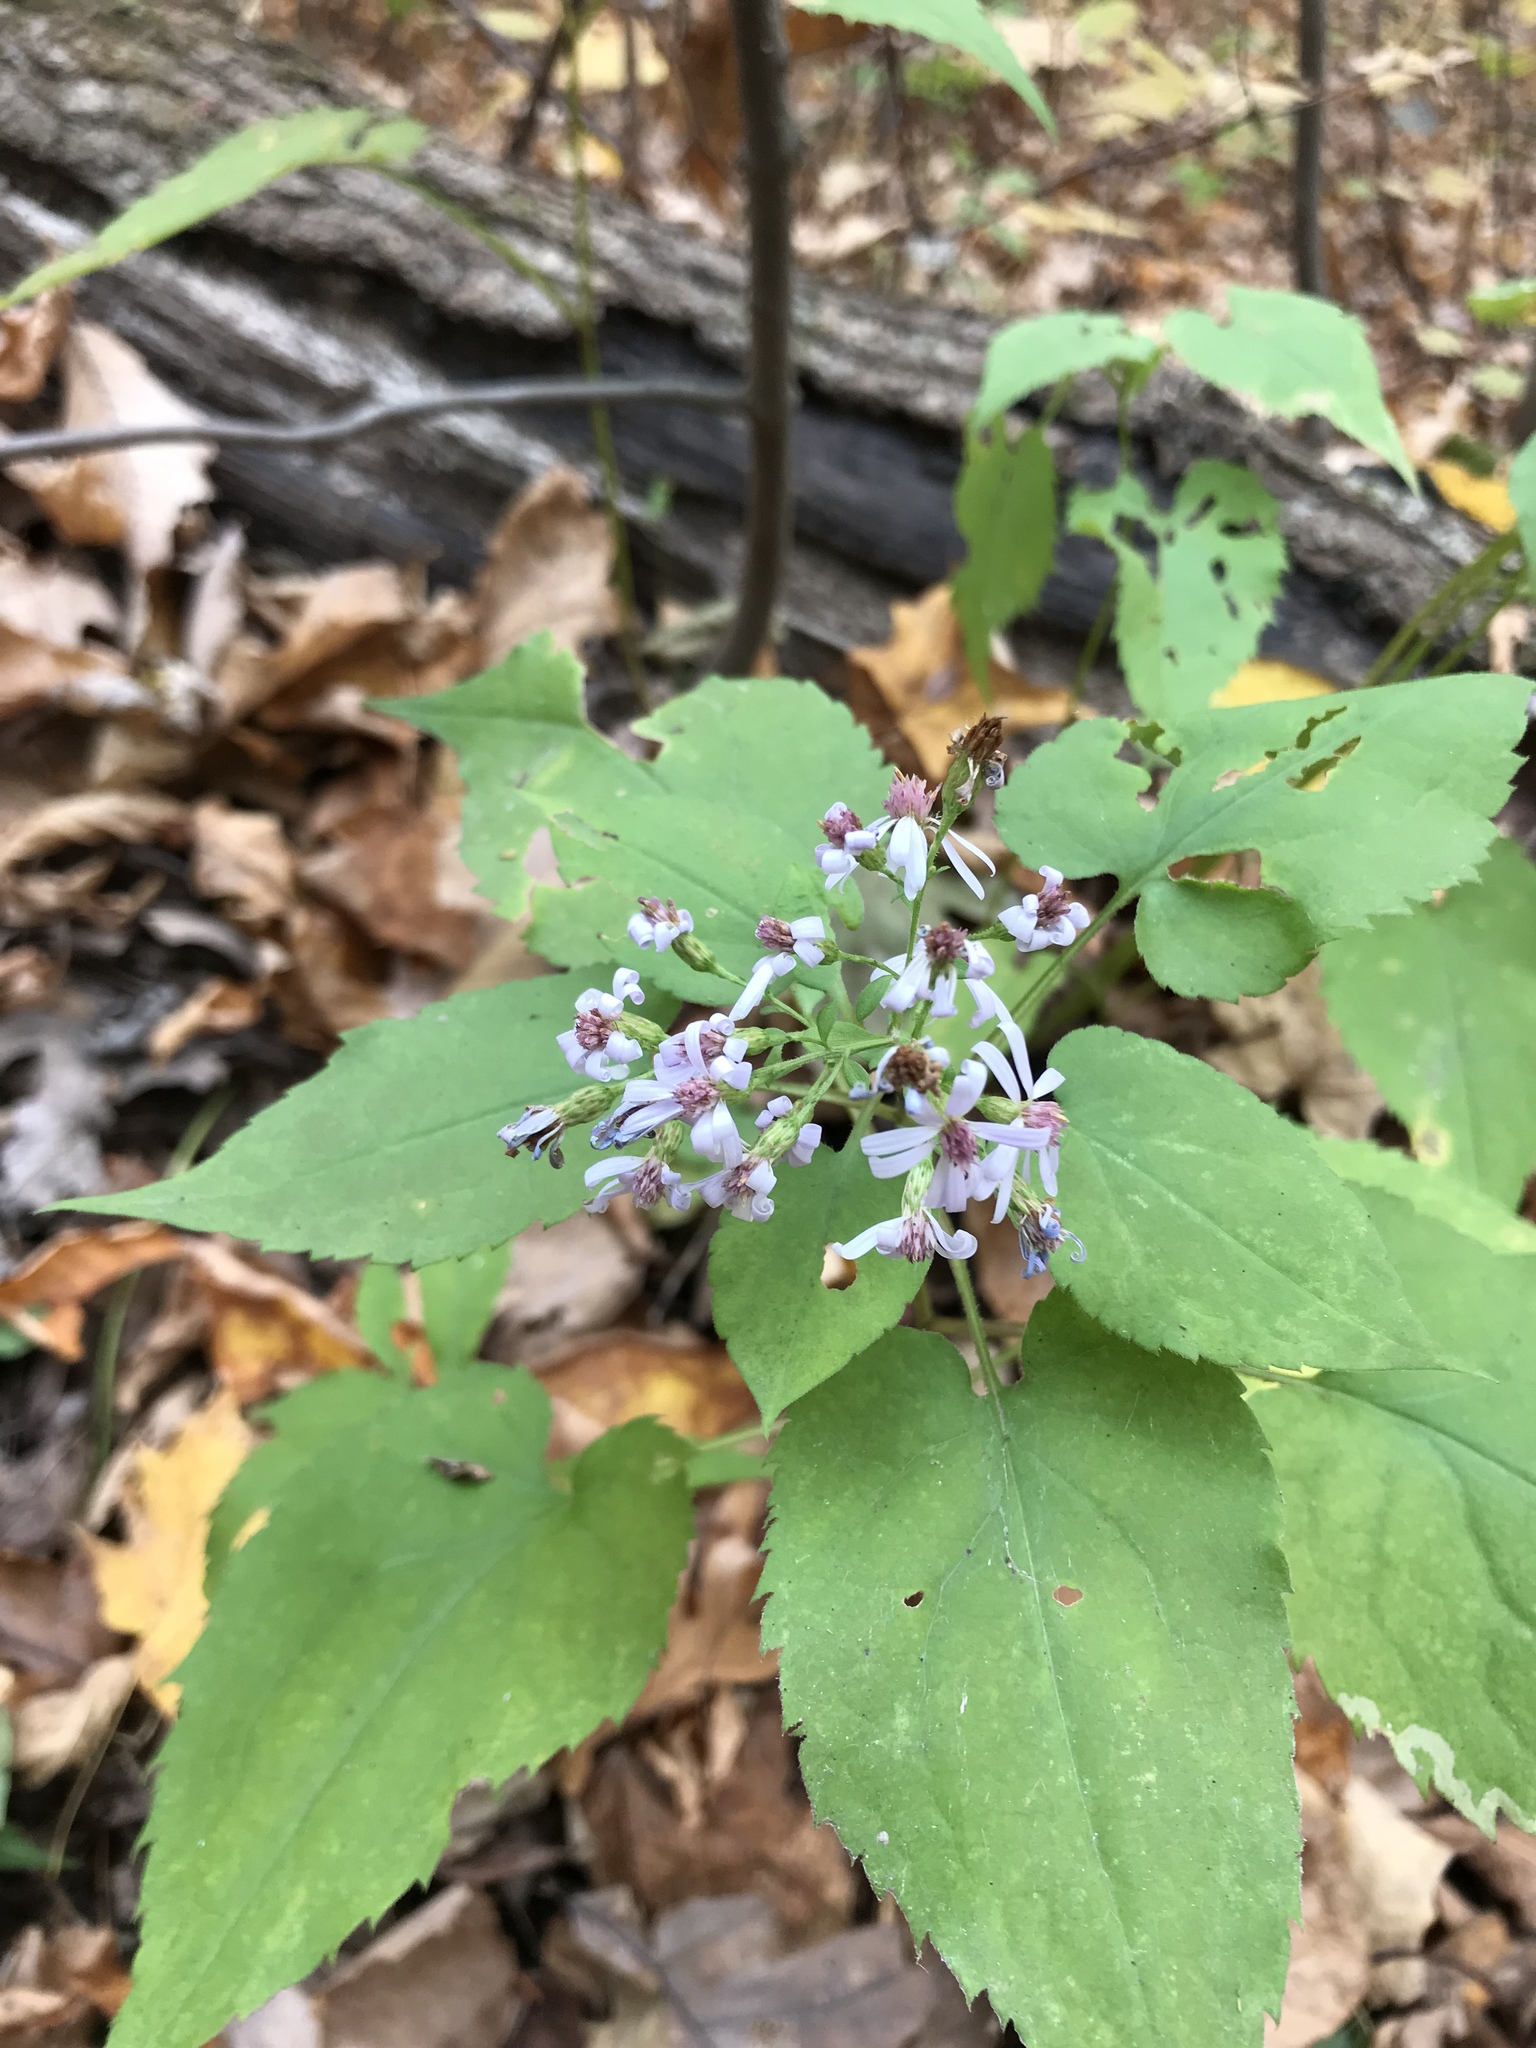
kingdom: Plantae
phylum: Tracheophyta
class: Magnoliopsida
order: Asterales
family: Asteraceae
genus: Symphyotrichum
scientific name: Symphyotrichum cordifolium
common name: Beeweed
